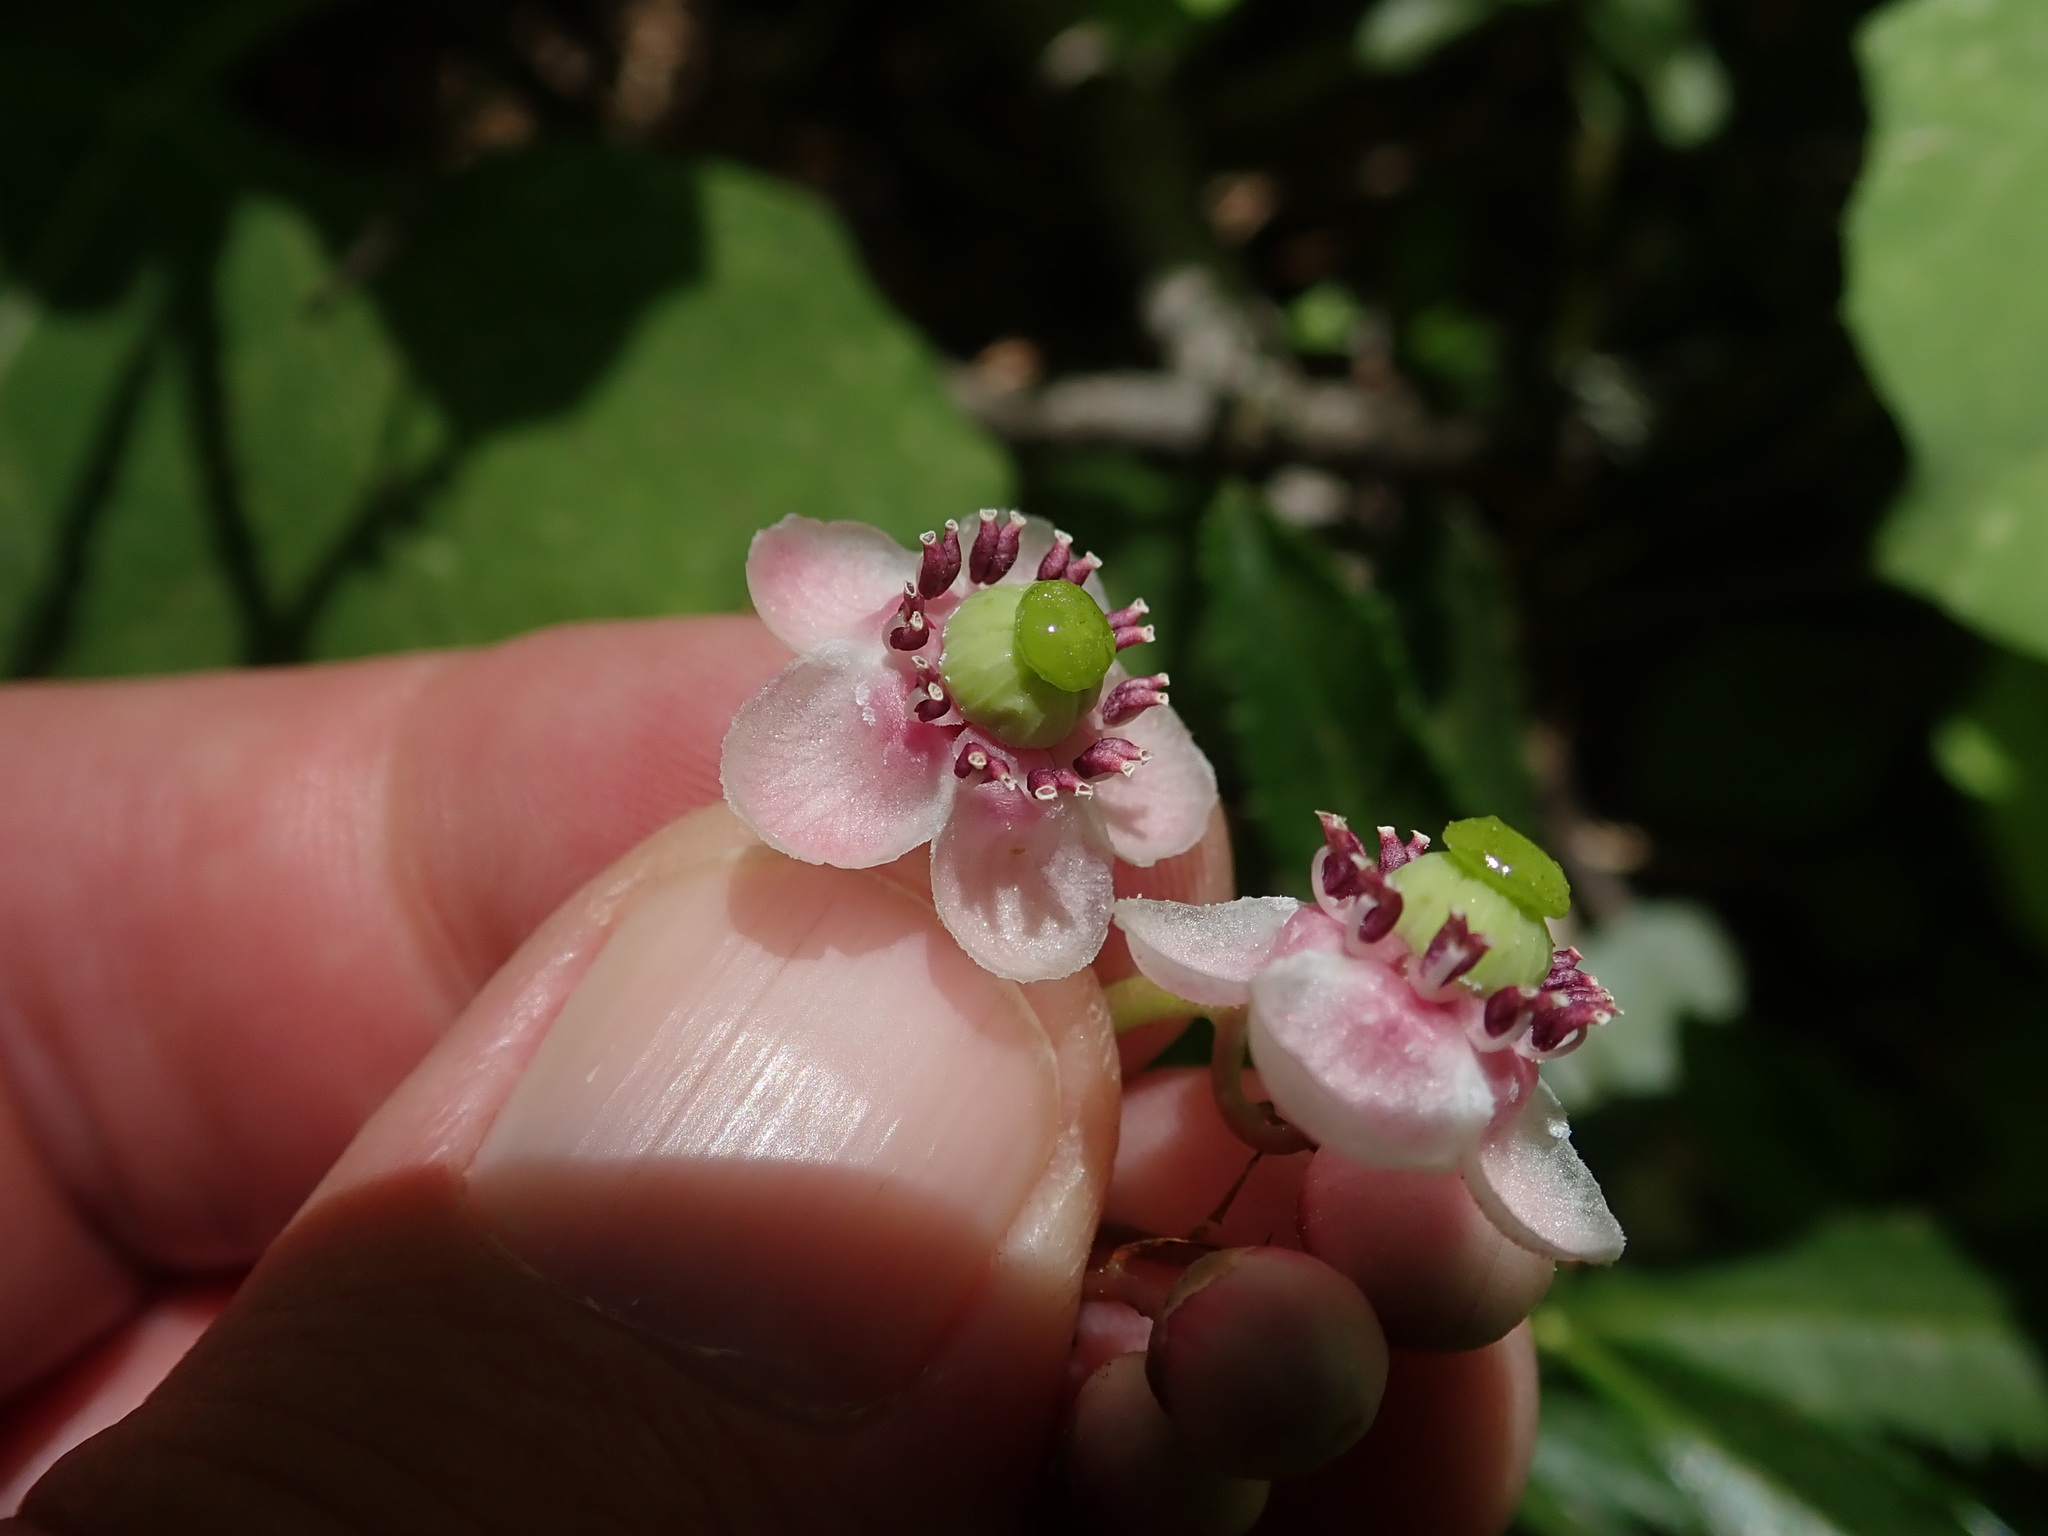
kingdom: Plantae
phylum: Tracheophyta
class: Magnoliopsida
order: Ericales
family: Ericaceae
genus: Chimaphila
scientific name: Chimaphila umbellata
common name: Pipsissewa
